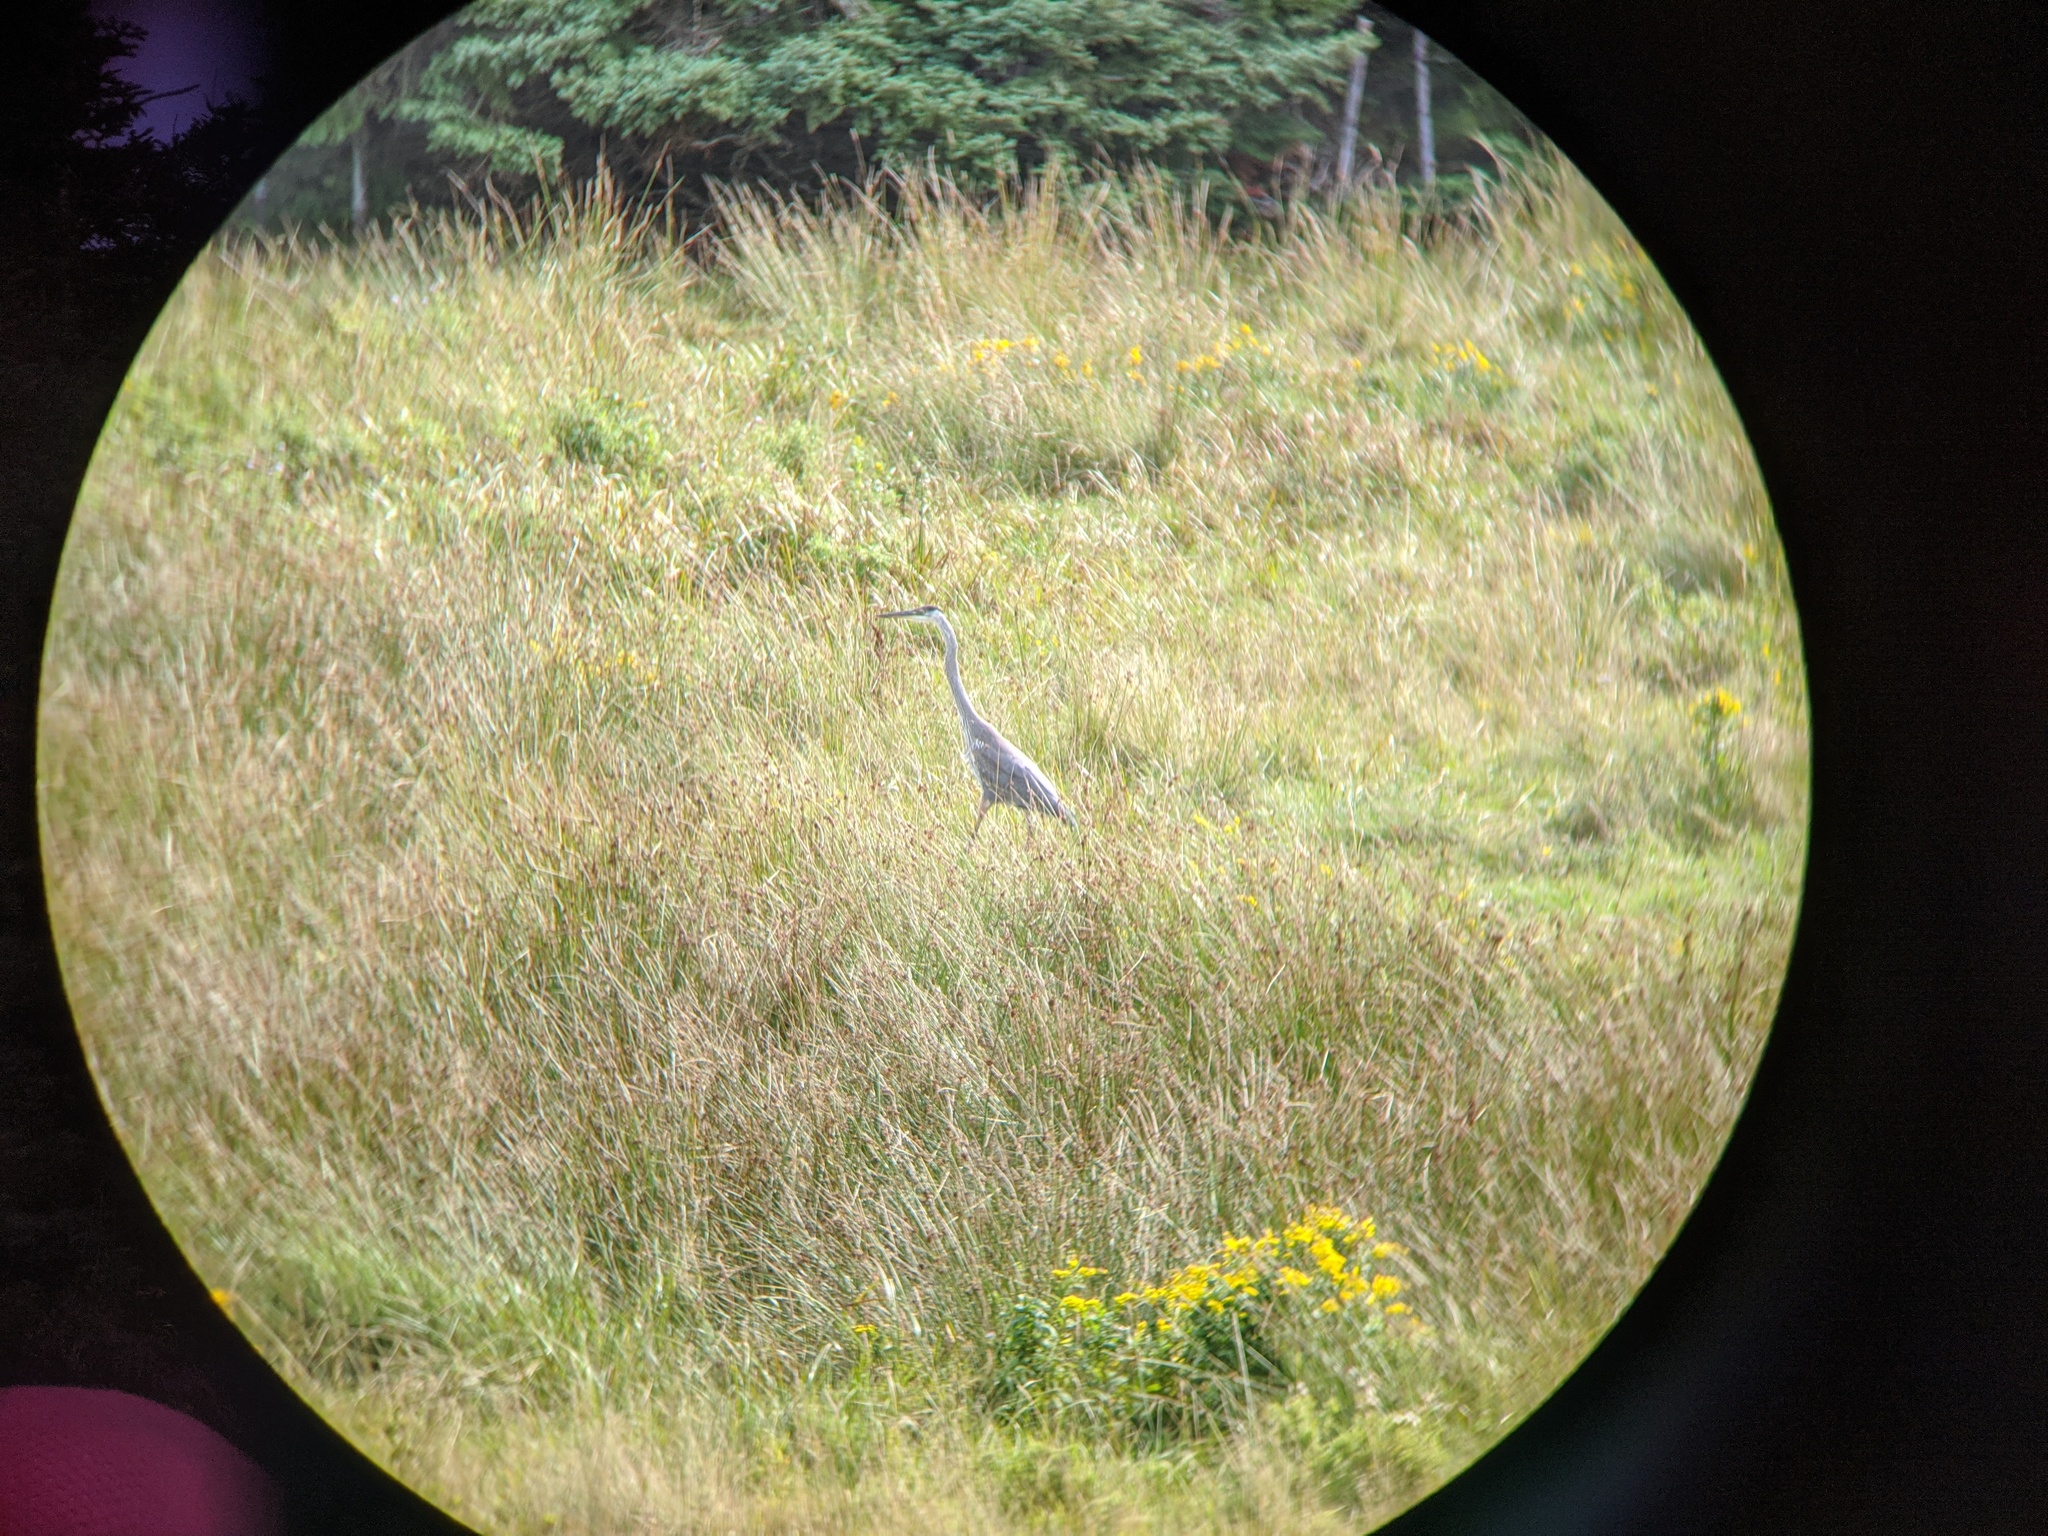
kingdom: Animalia
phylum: Chordata
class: Aves
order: Pelecaniformes
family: Ardeidae
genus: Ardea
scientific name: Ardea herodias
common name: Great blue heron
